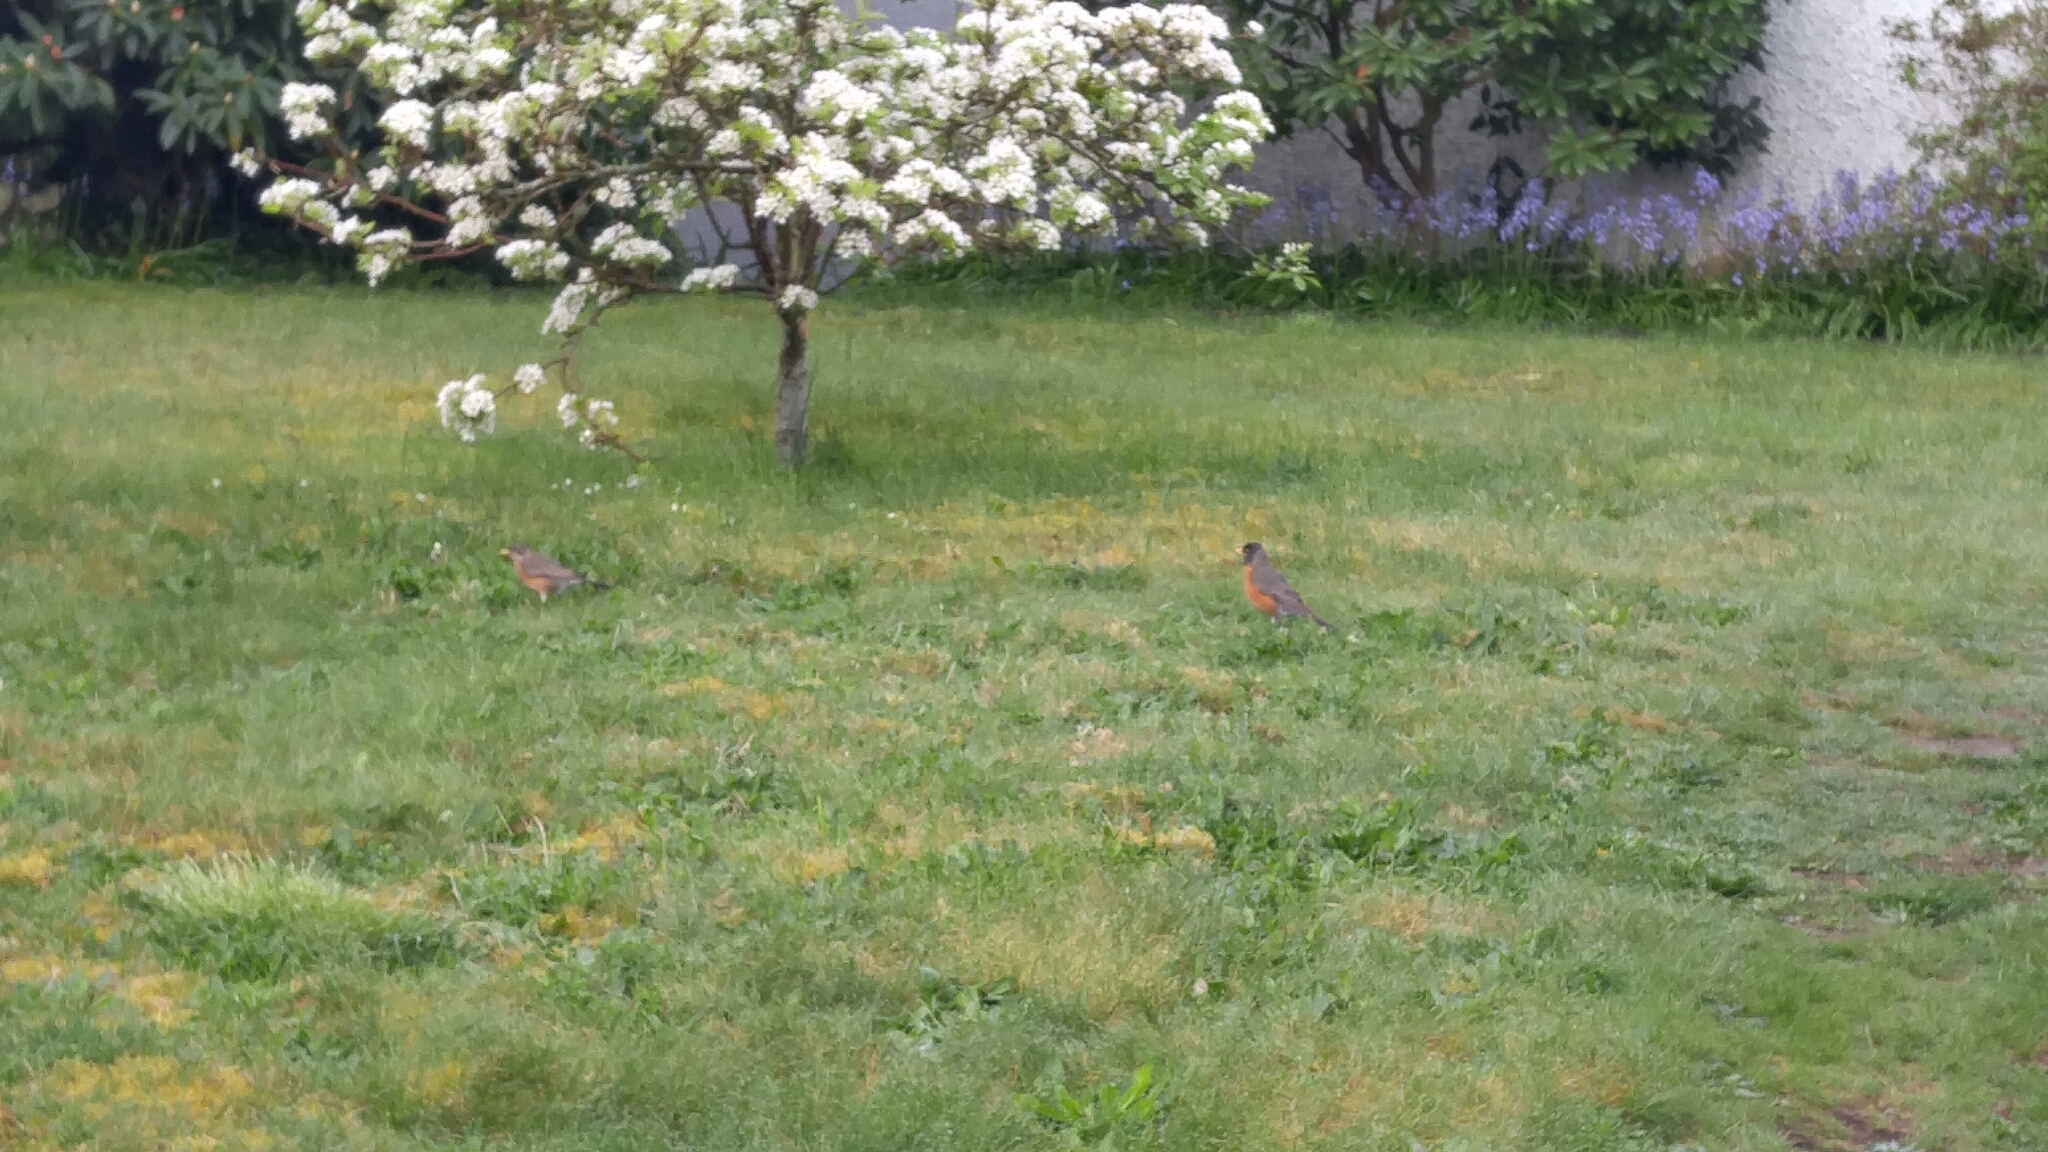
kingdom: Animalia
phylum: Chordata
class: Aves
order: Passeriformes
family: Turdidae
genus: Turdus
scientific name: Turdus migratorius
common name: American robin
